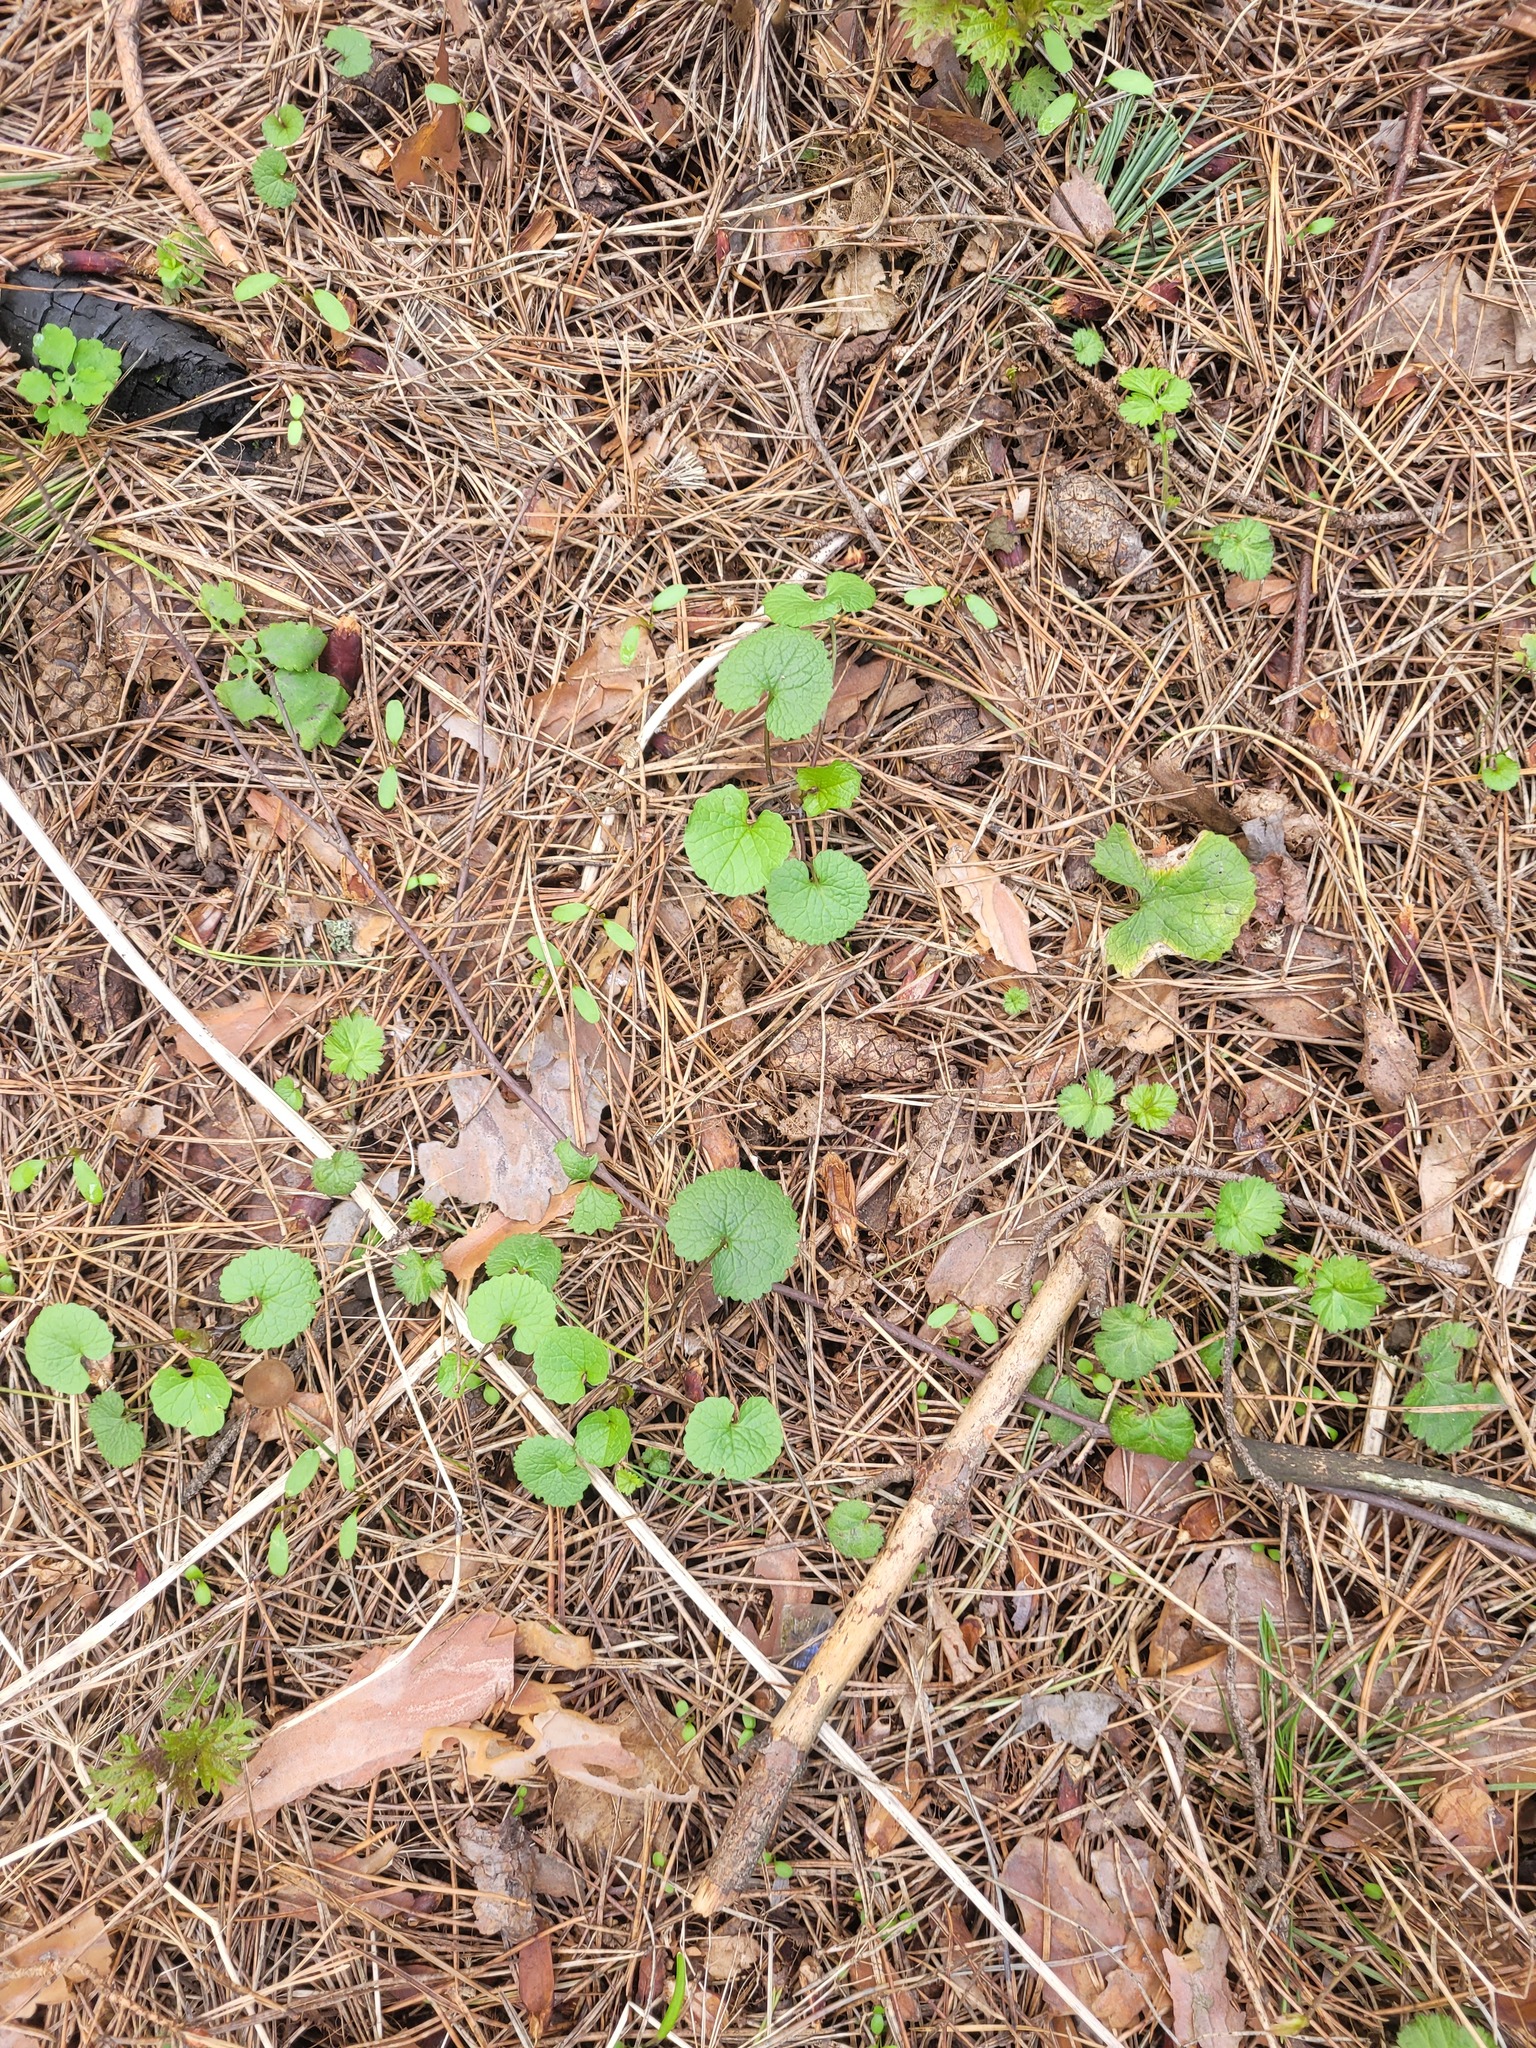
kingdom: Plantae
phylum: Tracheophyta
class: Magnoliopsida
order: Brassicales
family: Brassicaceae
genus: Alliaria
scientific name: Alliaria petiolata
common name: Garlic mustard
